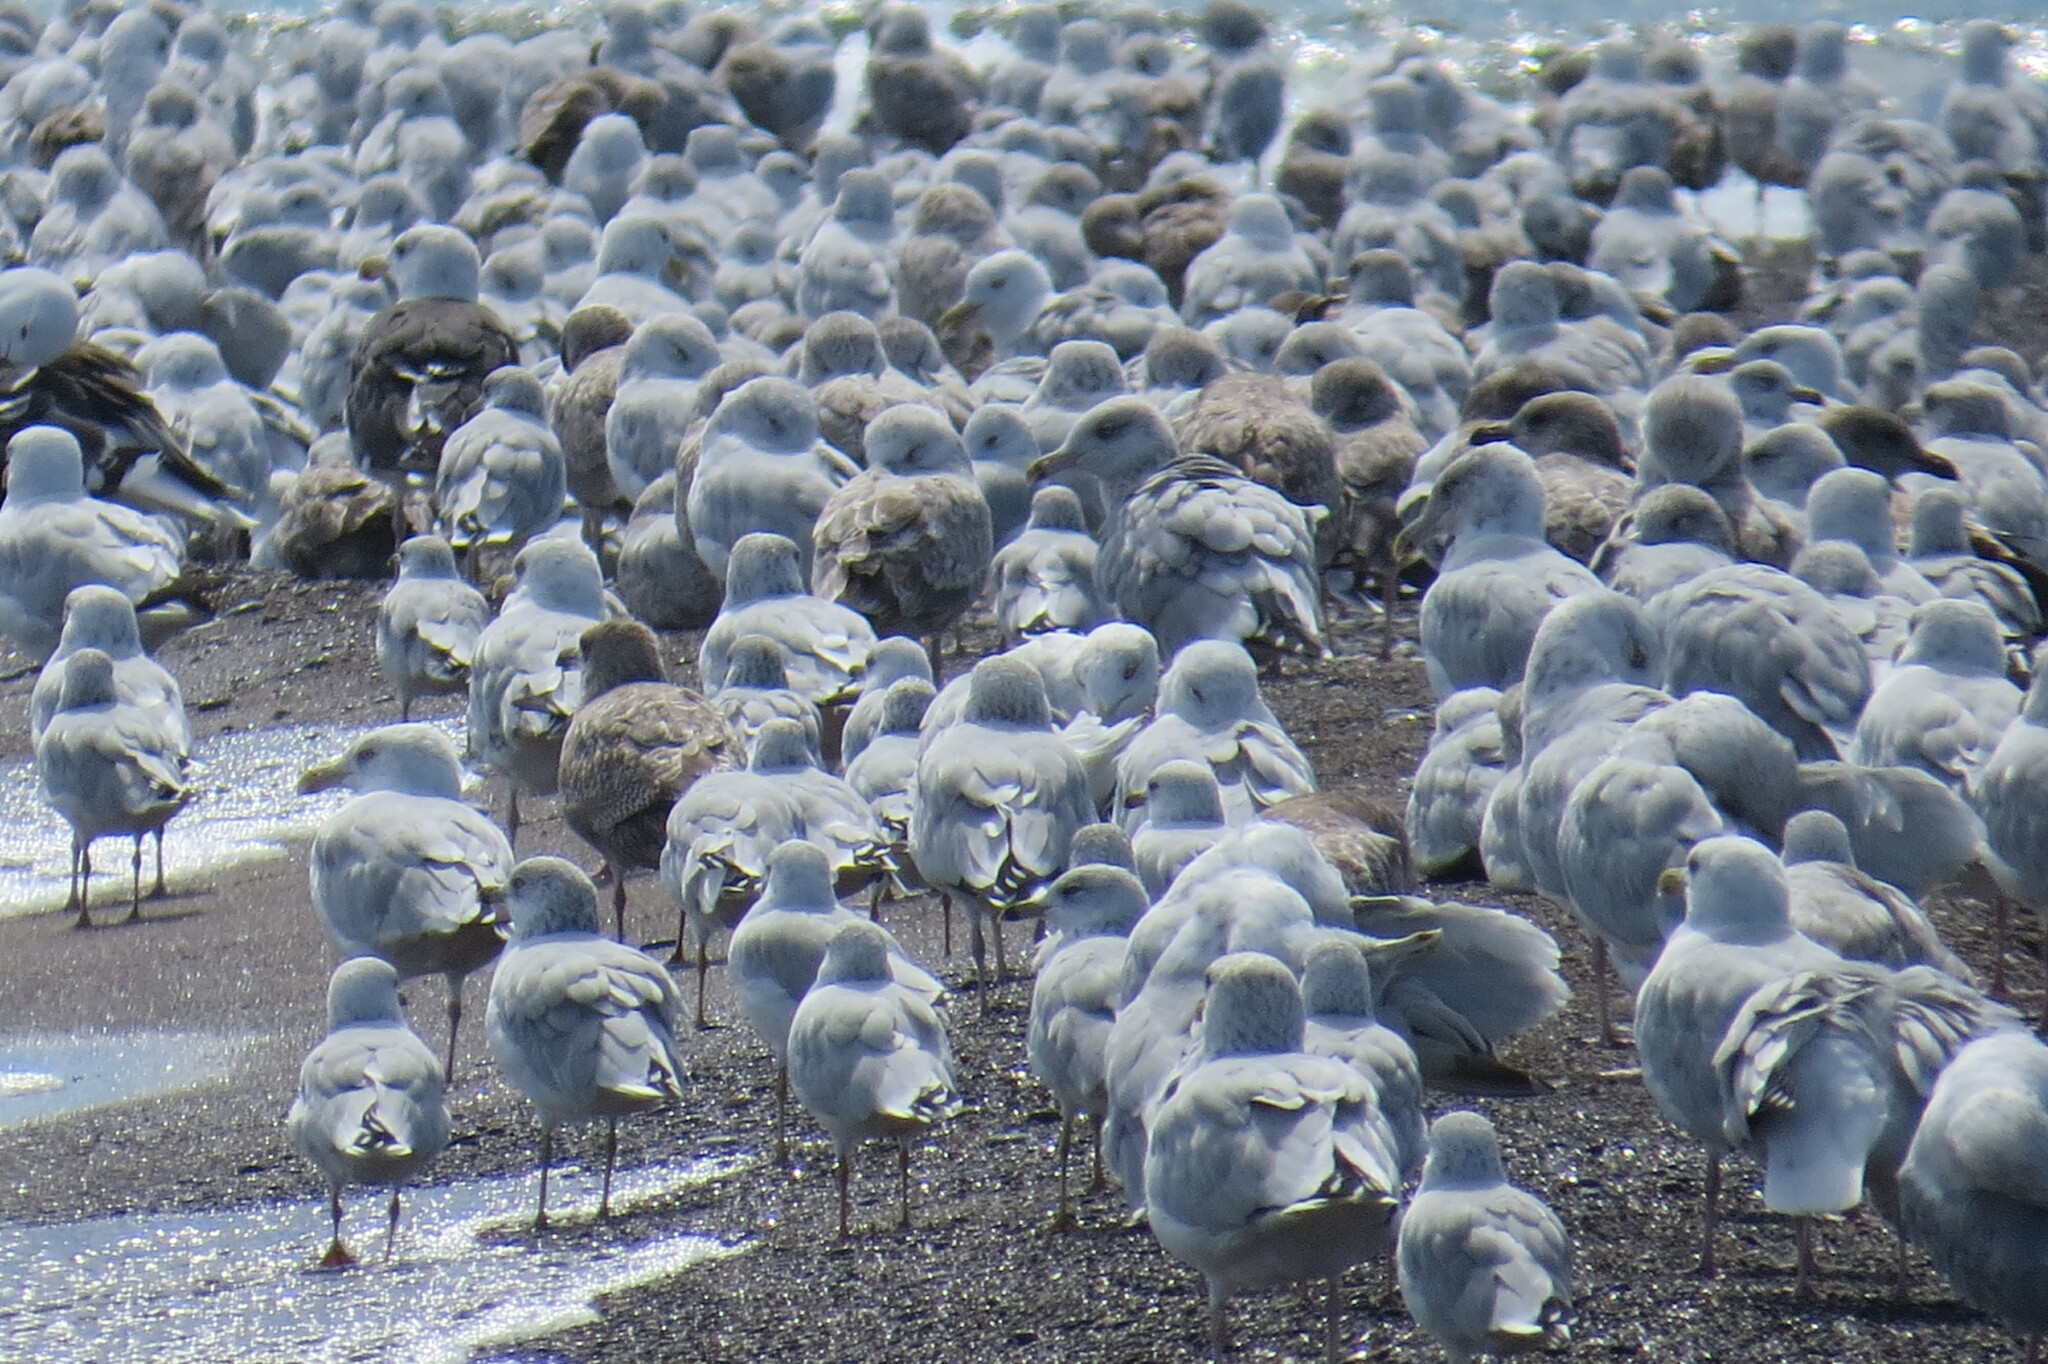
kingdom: Animalia
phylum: Chordata
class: Aves
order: Charadriiformes
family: Laridae
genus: Larus
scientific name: Larus argentatus
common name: Herring gull
